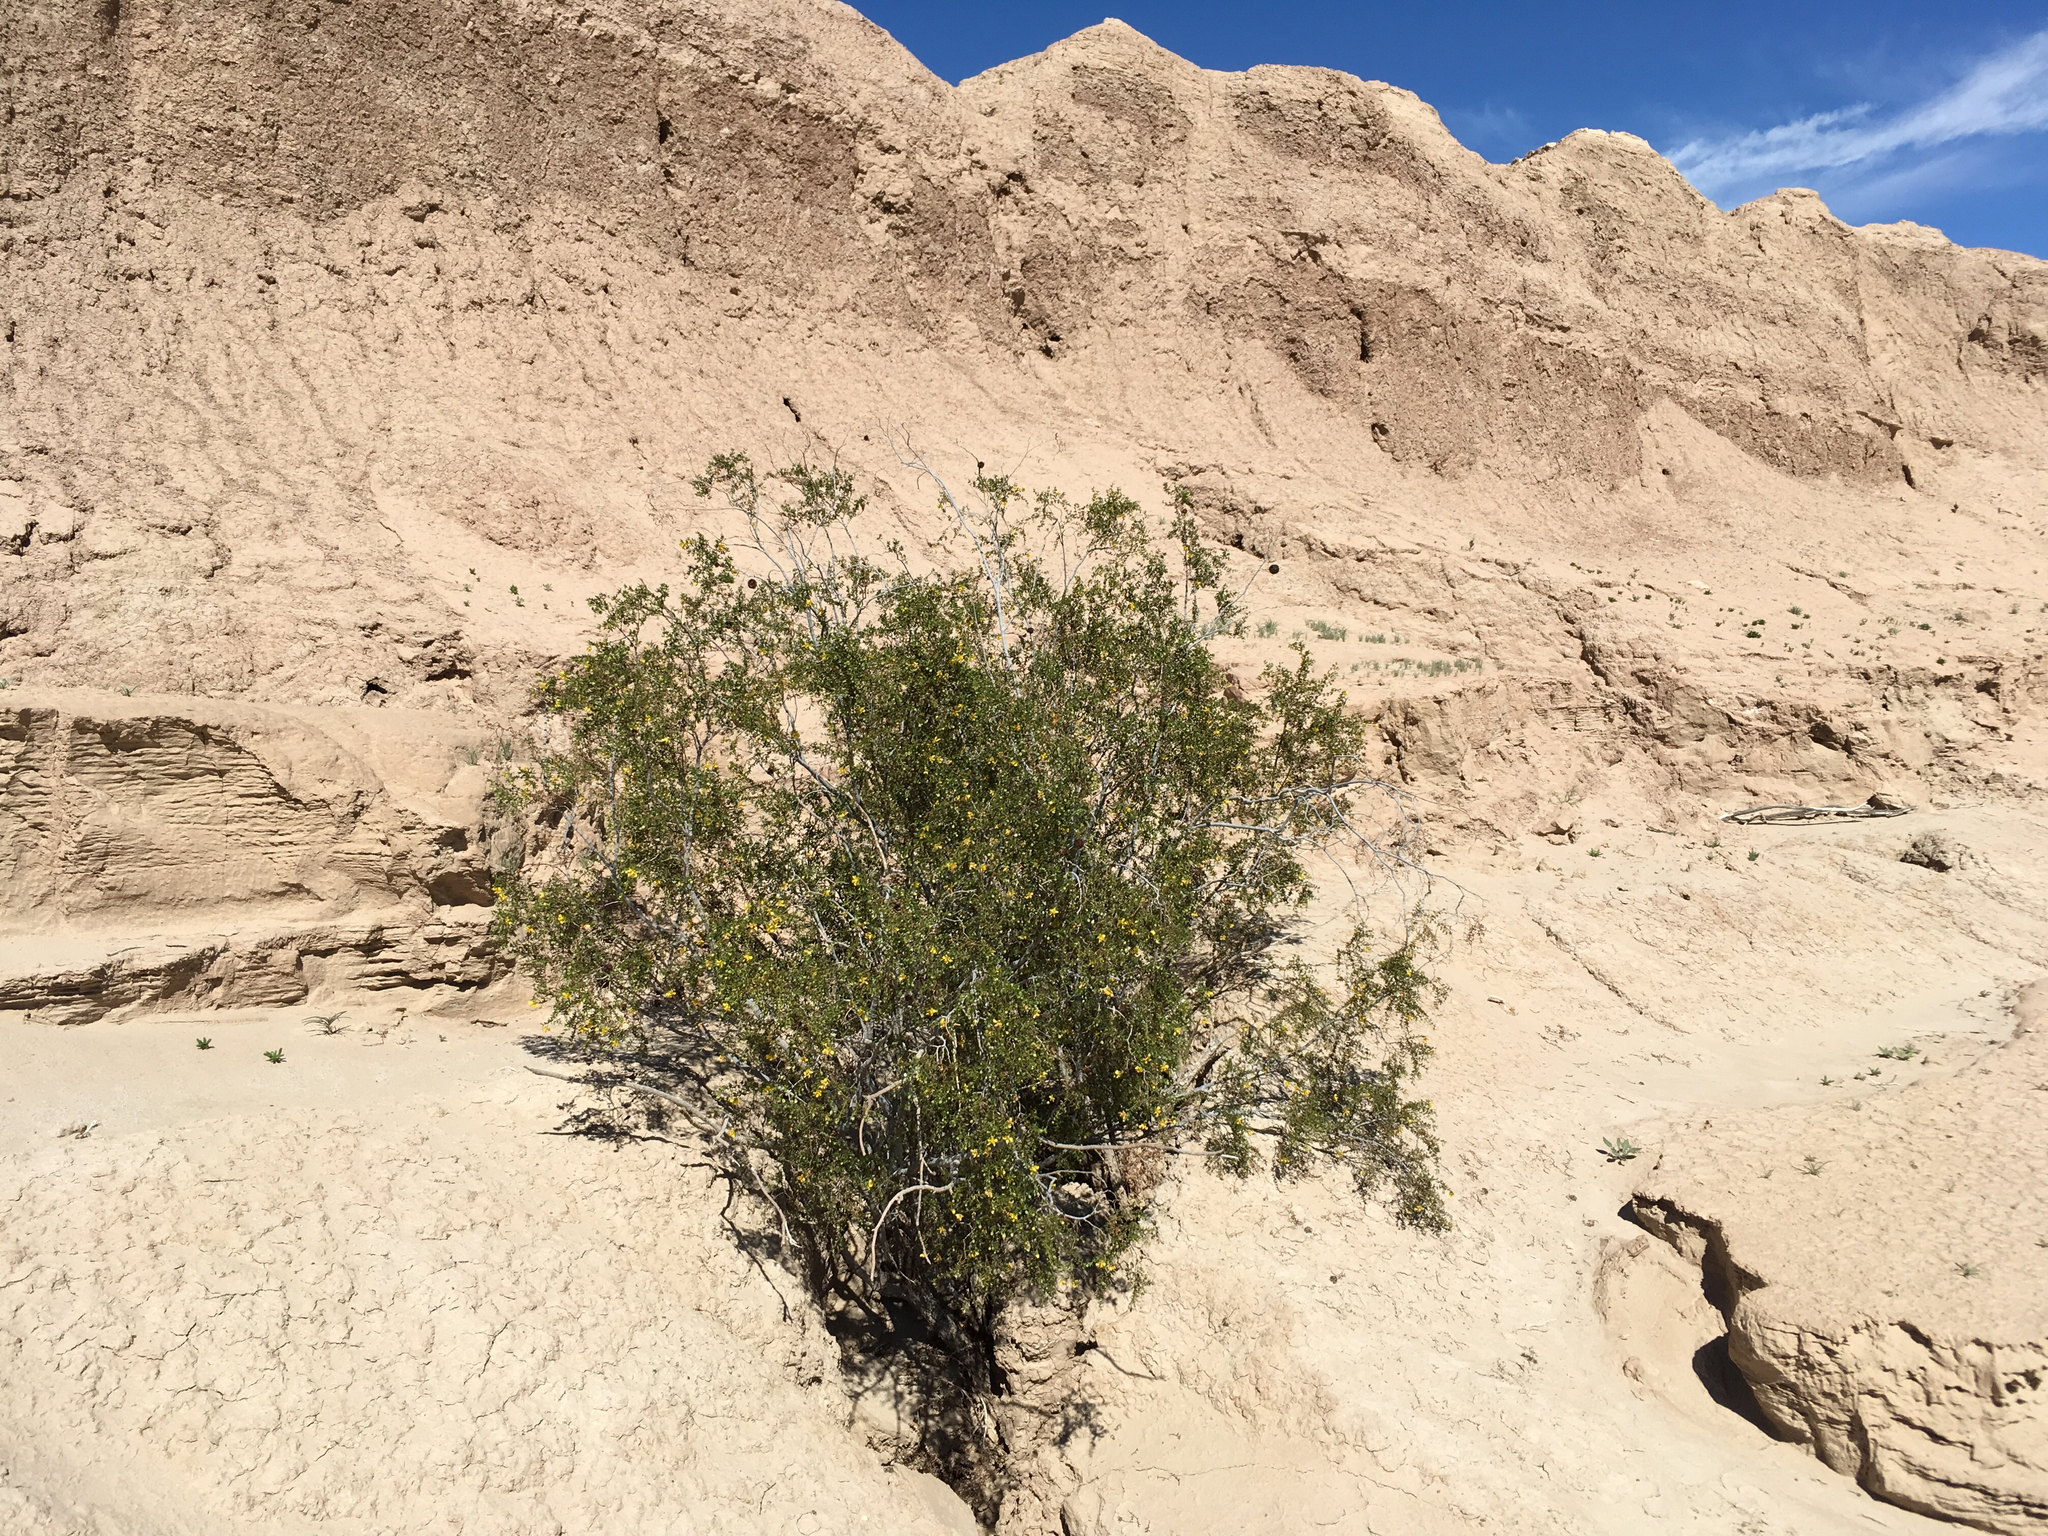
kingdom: Plantae
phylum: Tracheophyta
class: Magnoliopsida
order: Zygophyllales
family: Zygophyllaceae
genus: Larrea
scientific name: Larrea tridentata
